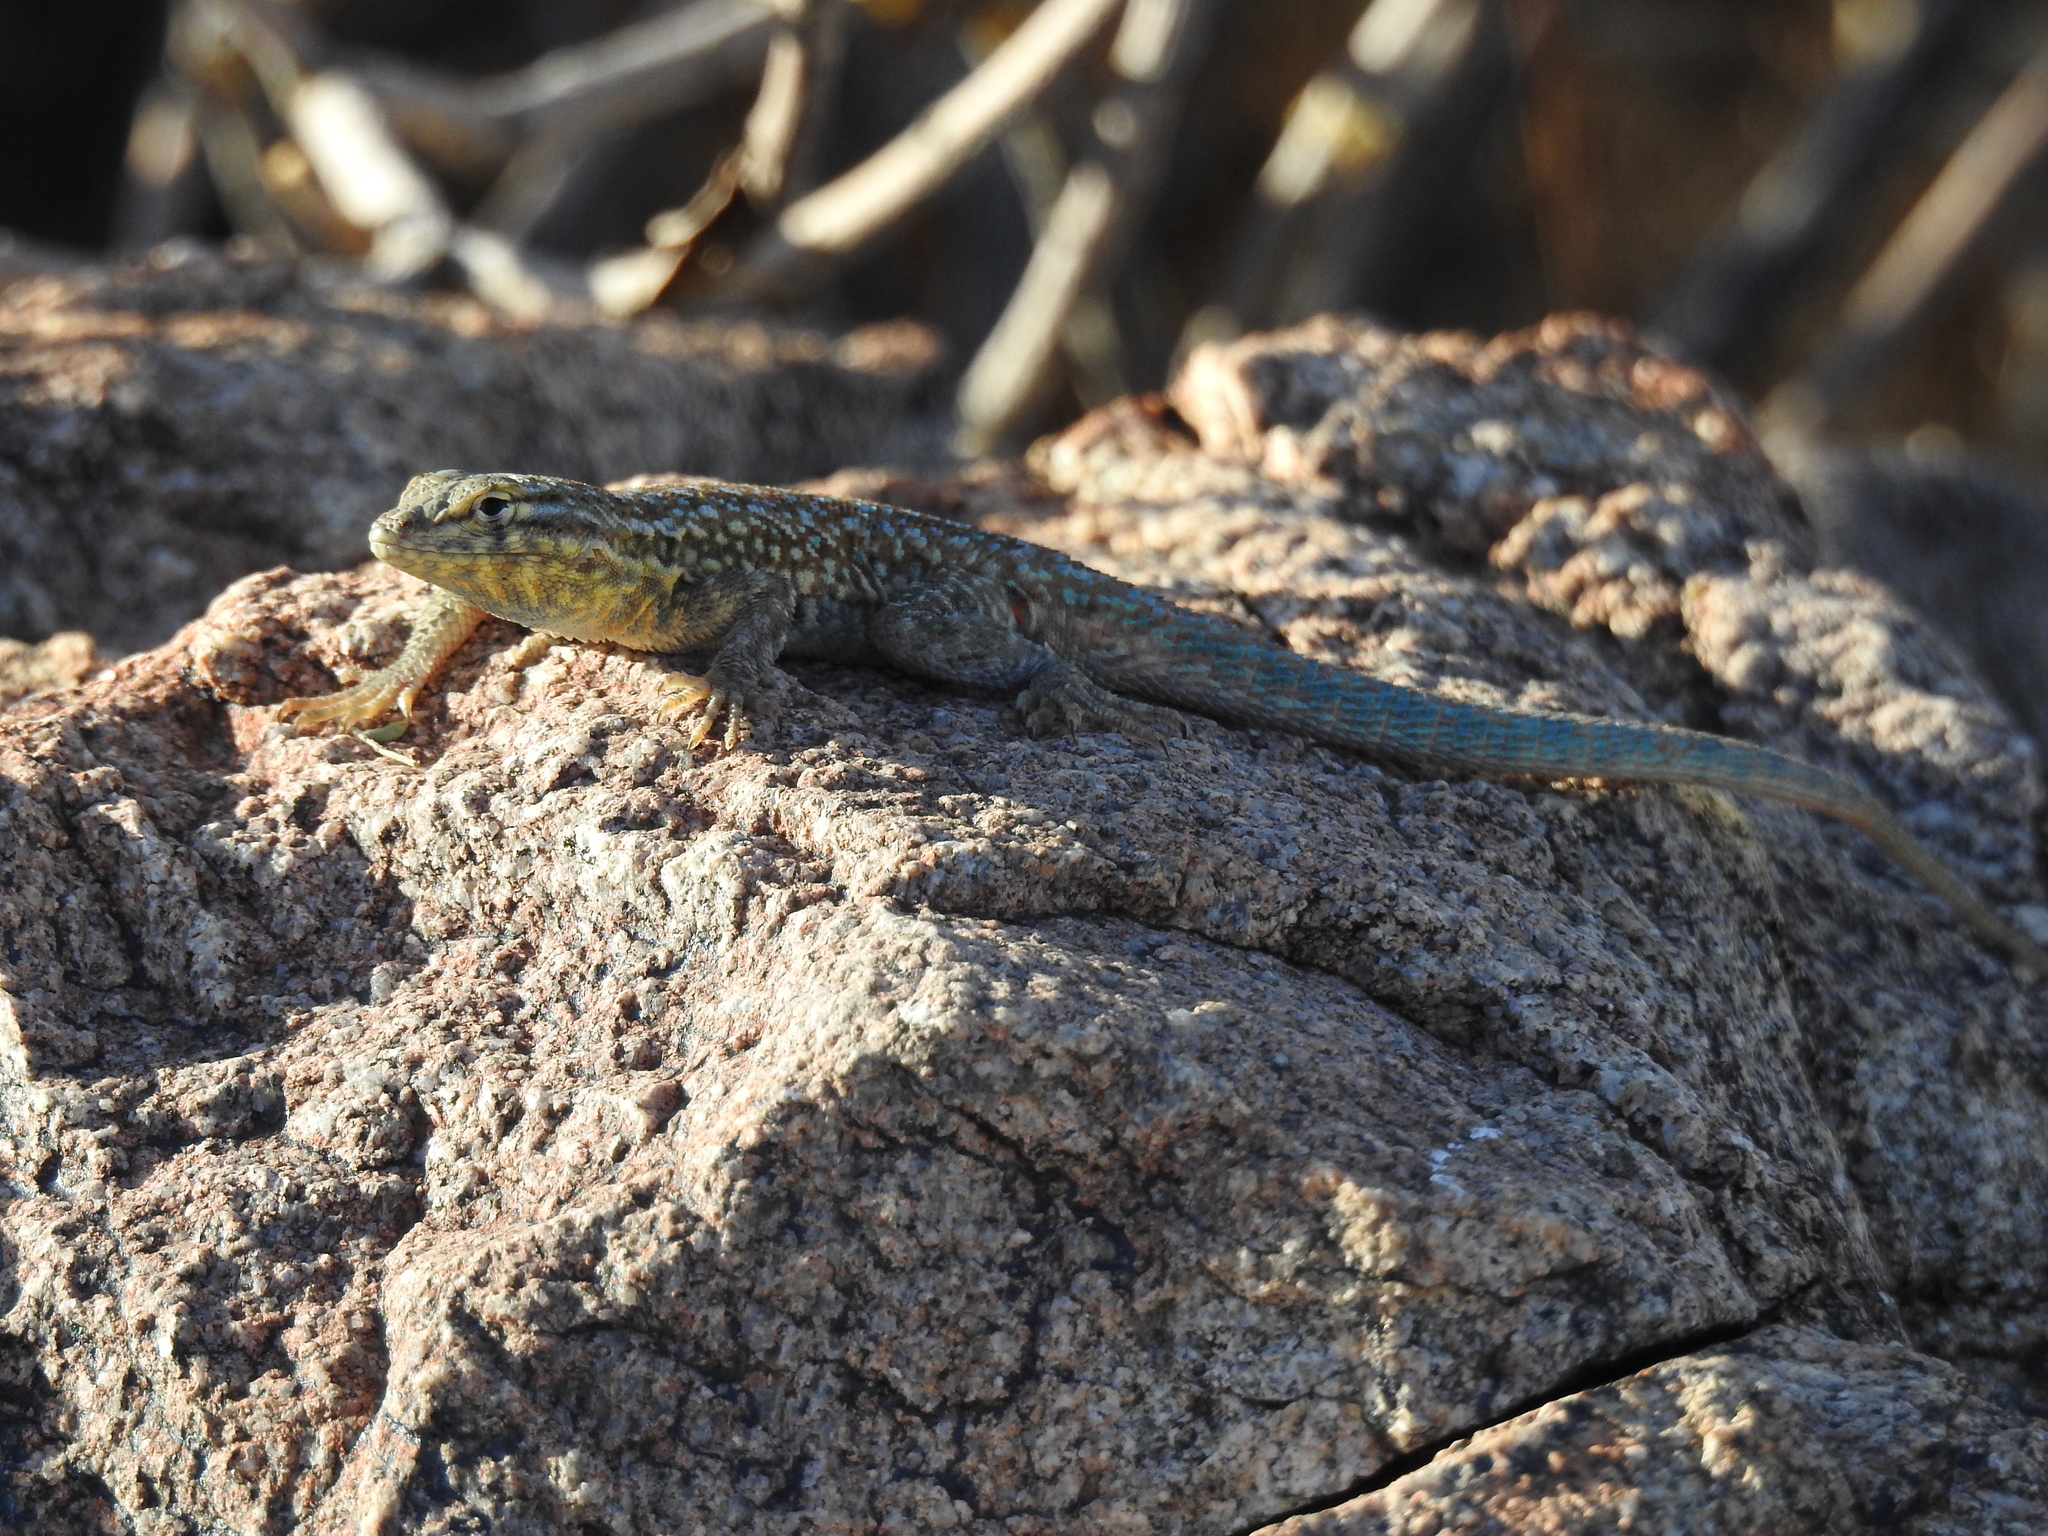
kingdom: Animalia
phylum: Chordata
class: Squamata
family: Phrynosomatidae
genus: Uta
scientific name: Uta stansburiana
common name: Side-blotched lizard
